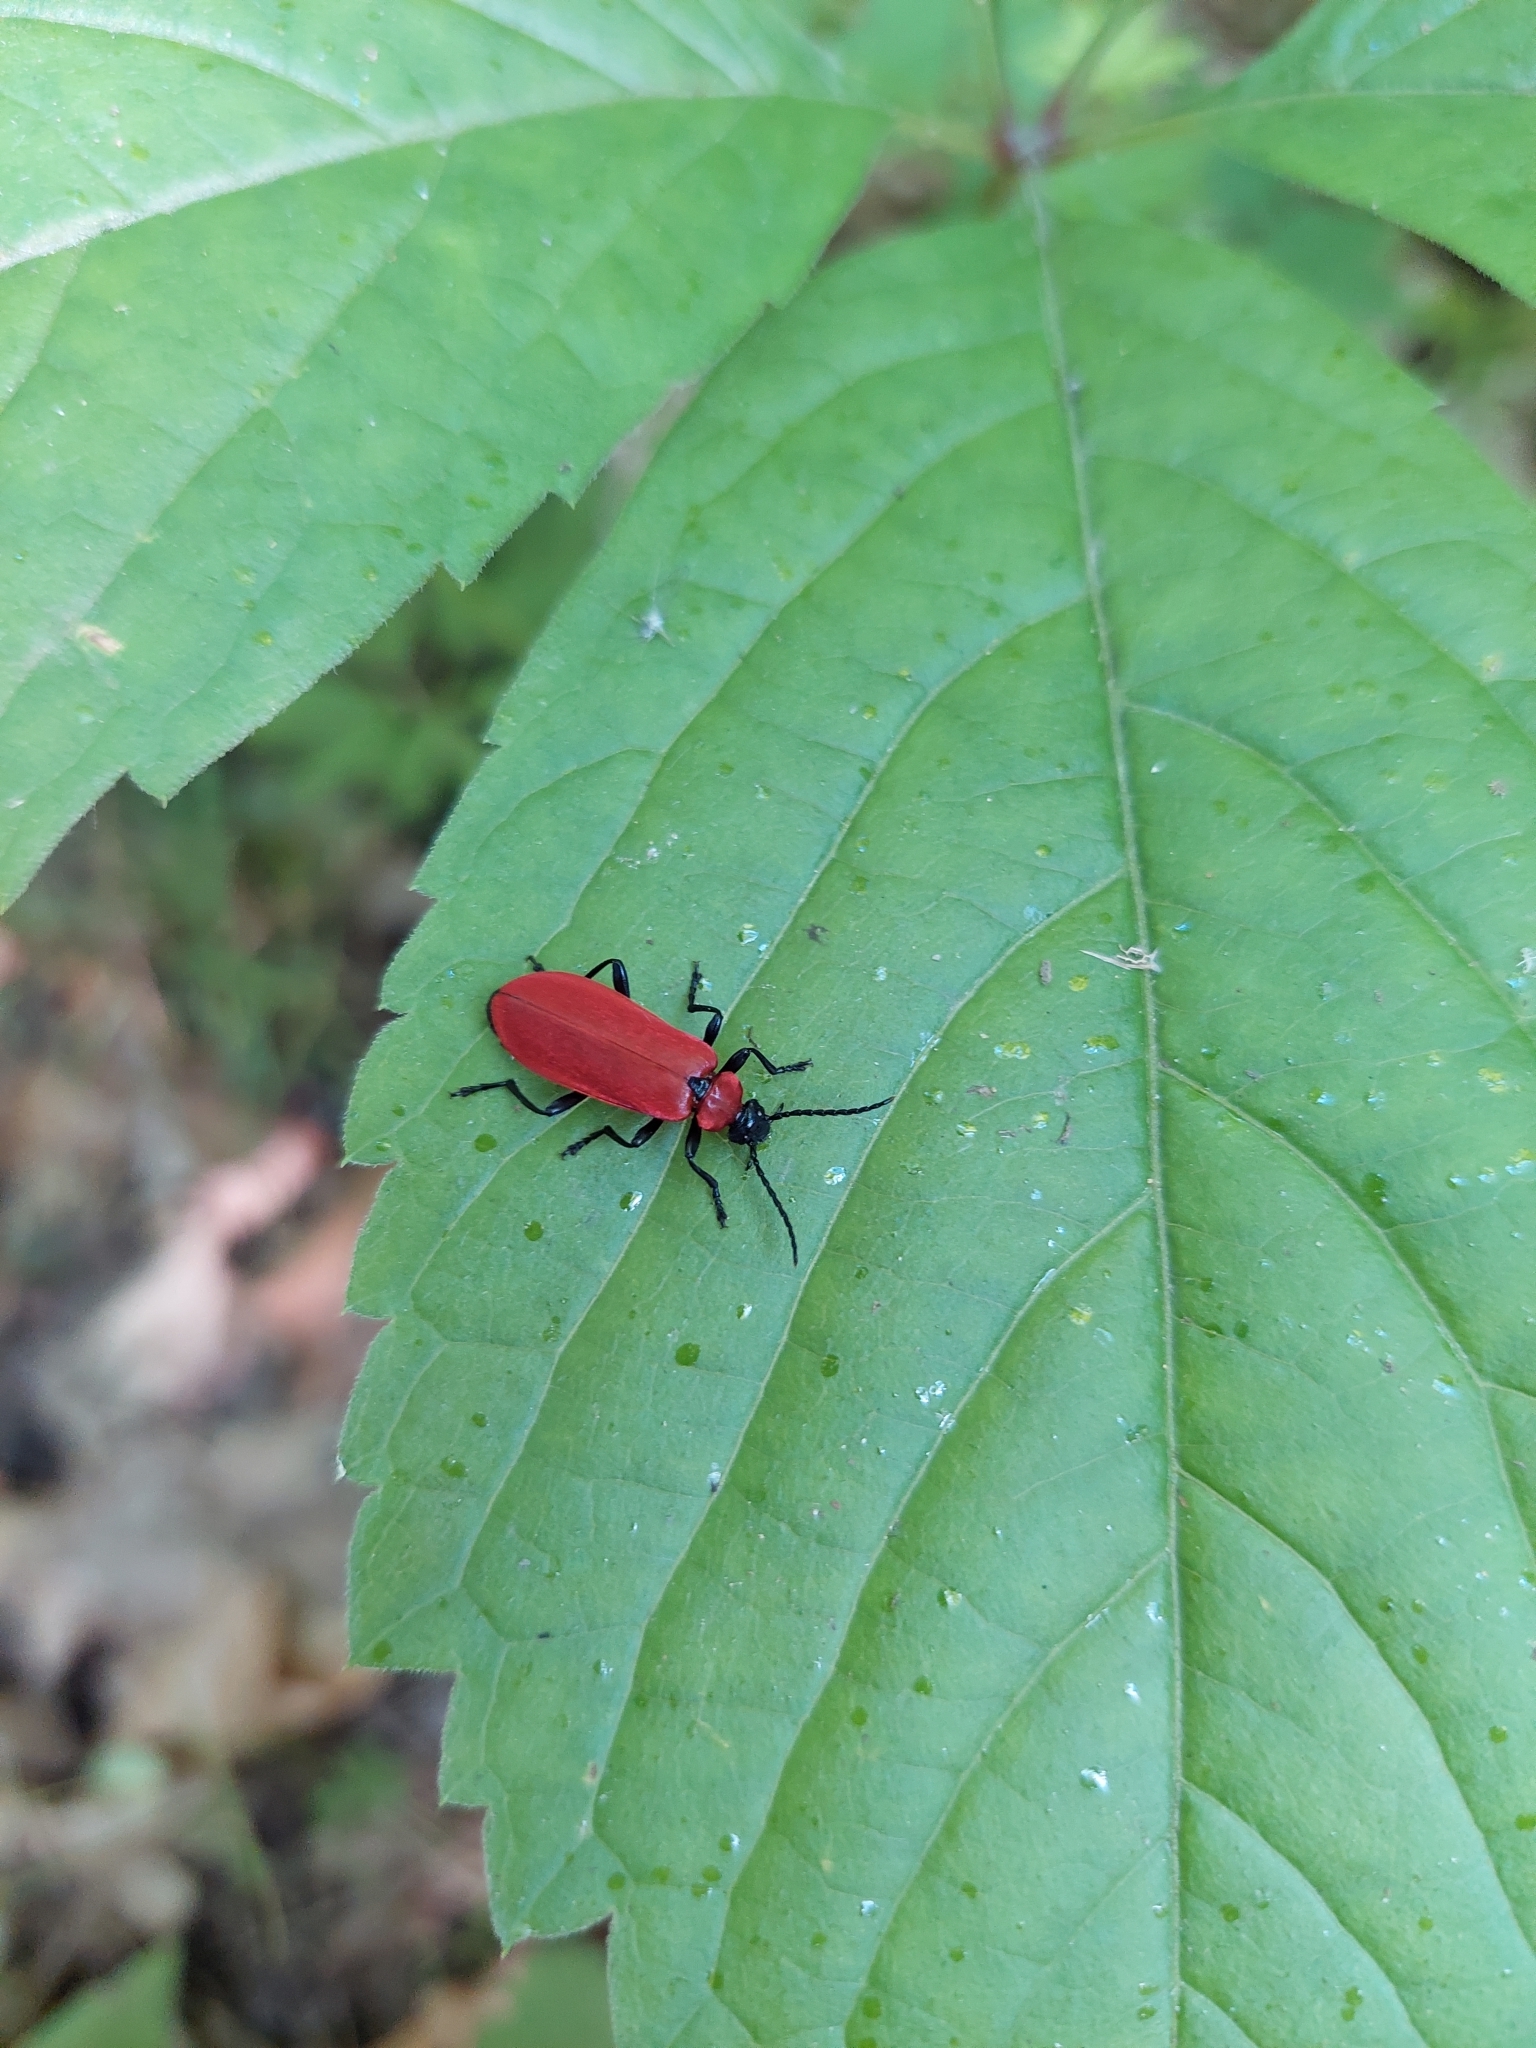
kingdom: Animalia
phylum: Arthropoda
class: Insecta
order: Coleoptera
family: Pyrochroidae
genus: Pyrochroa
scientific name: Pyrochroa coccinea
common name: Black-headed cardinal beetle
